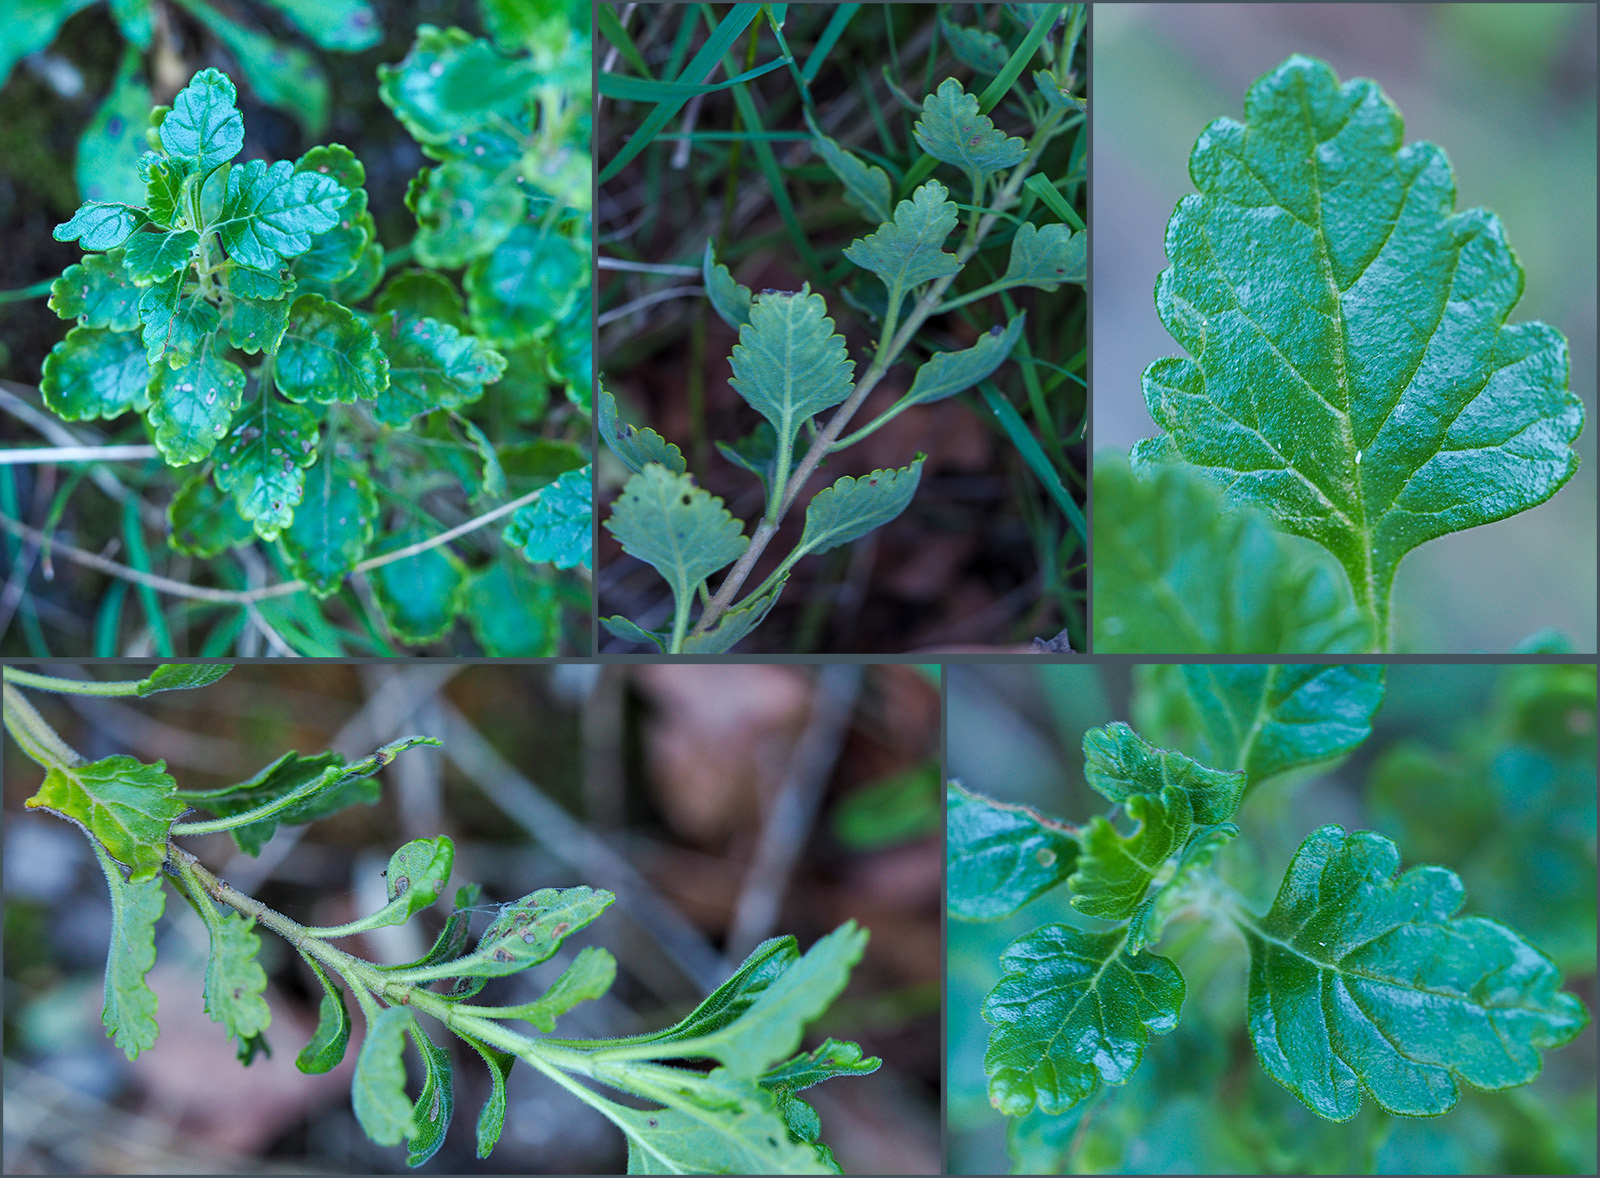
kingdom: Plantae
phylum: Tracheophyta
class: Magnoliopsida
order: Lamiales
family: Lamiaceae
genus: Teucrium
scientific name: Teucrium flavum
